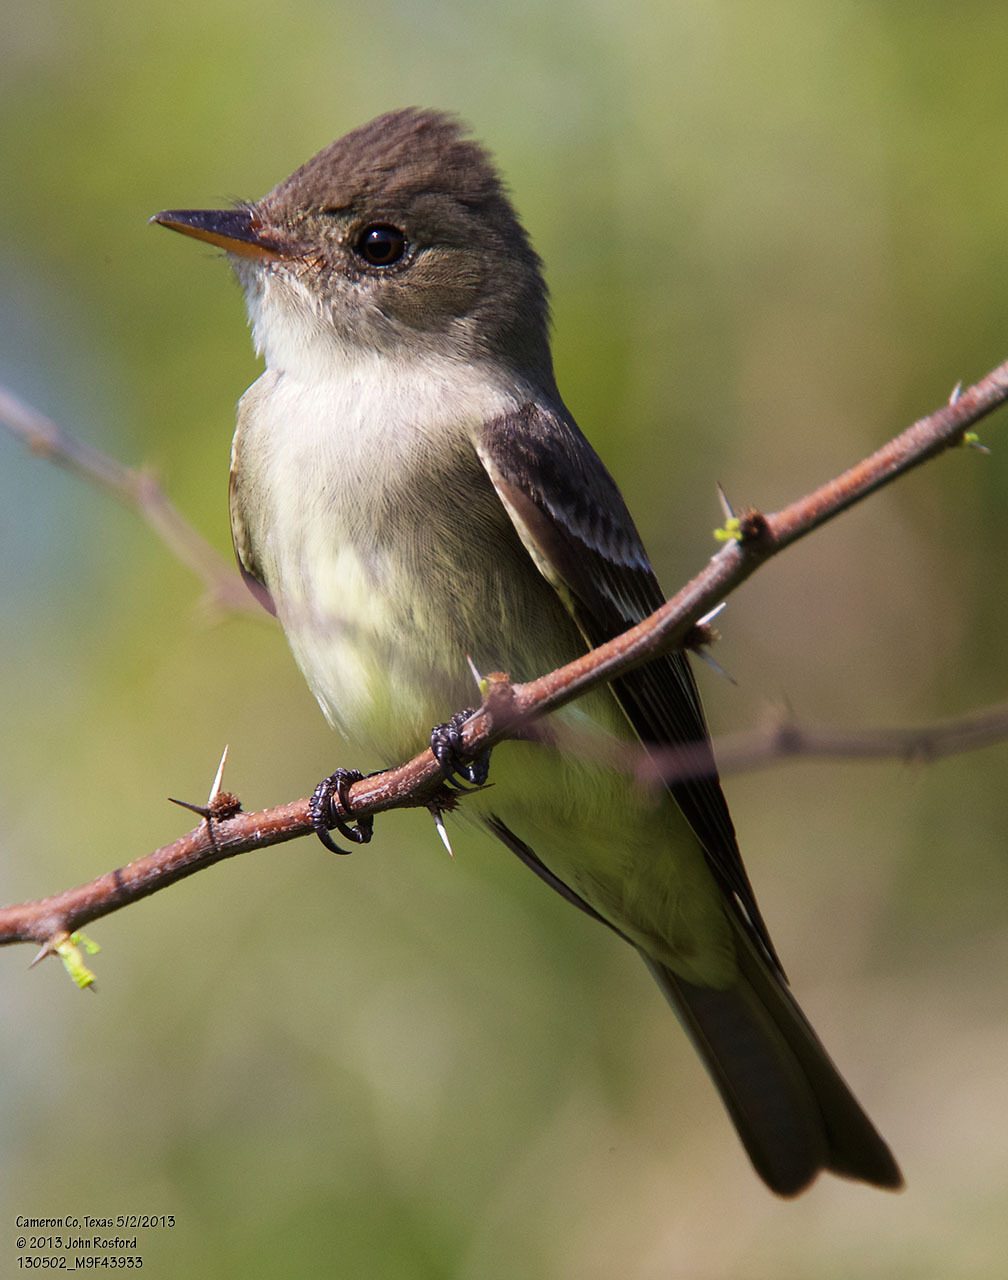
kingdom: Animalia
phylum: Chordata
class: Aves
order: Passeriformes
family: Tyrannidae
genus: Contopus
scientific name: Contopus virens
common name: Eastern wood-pewee
